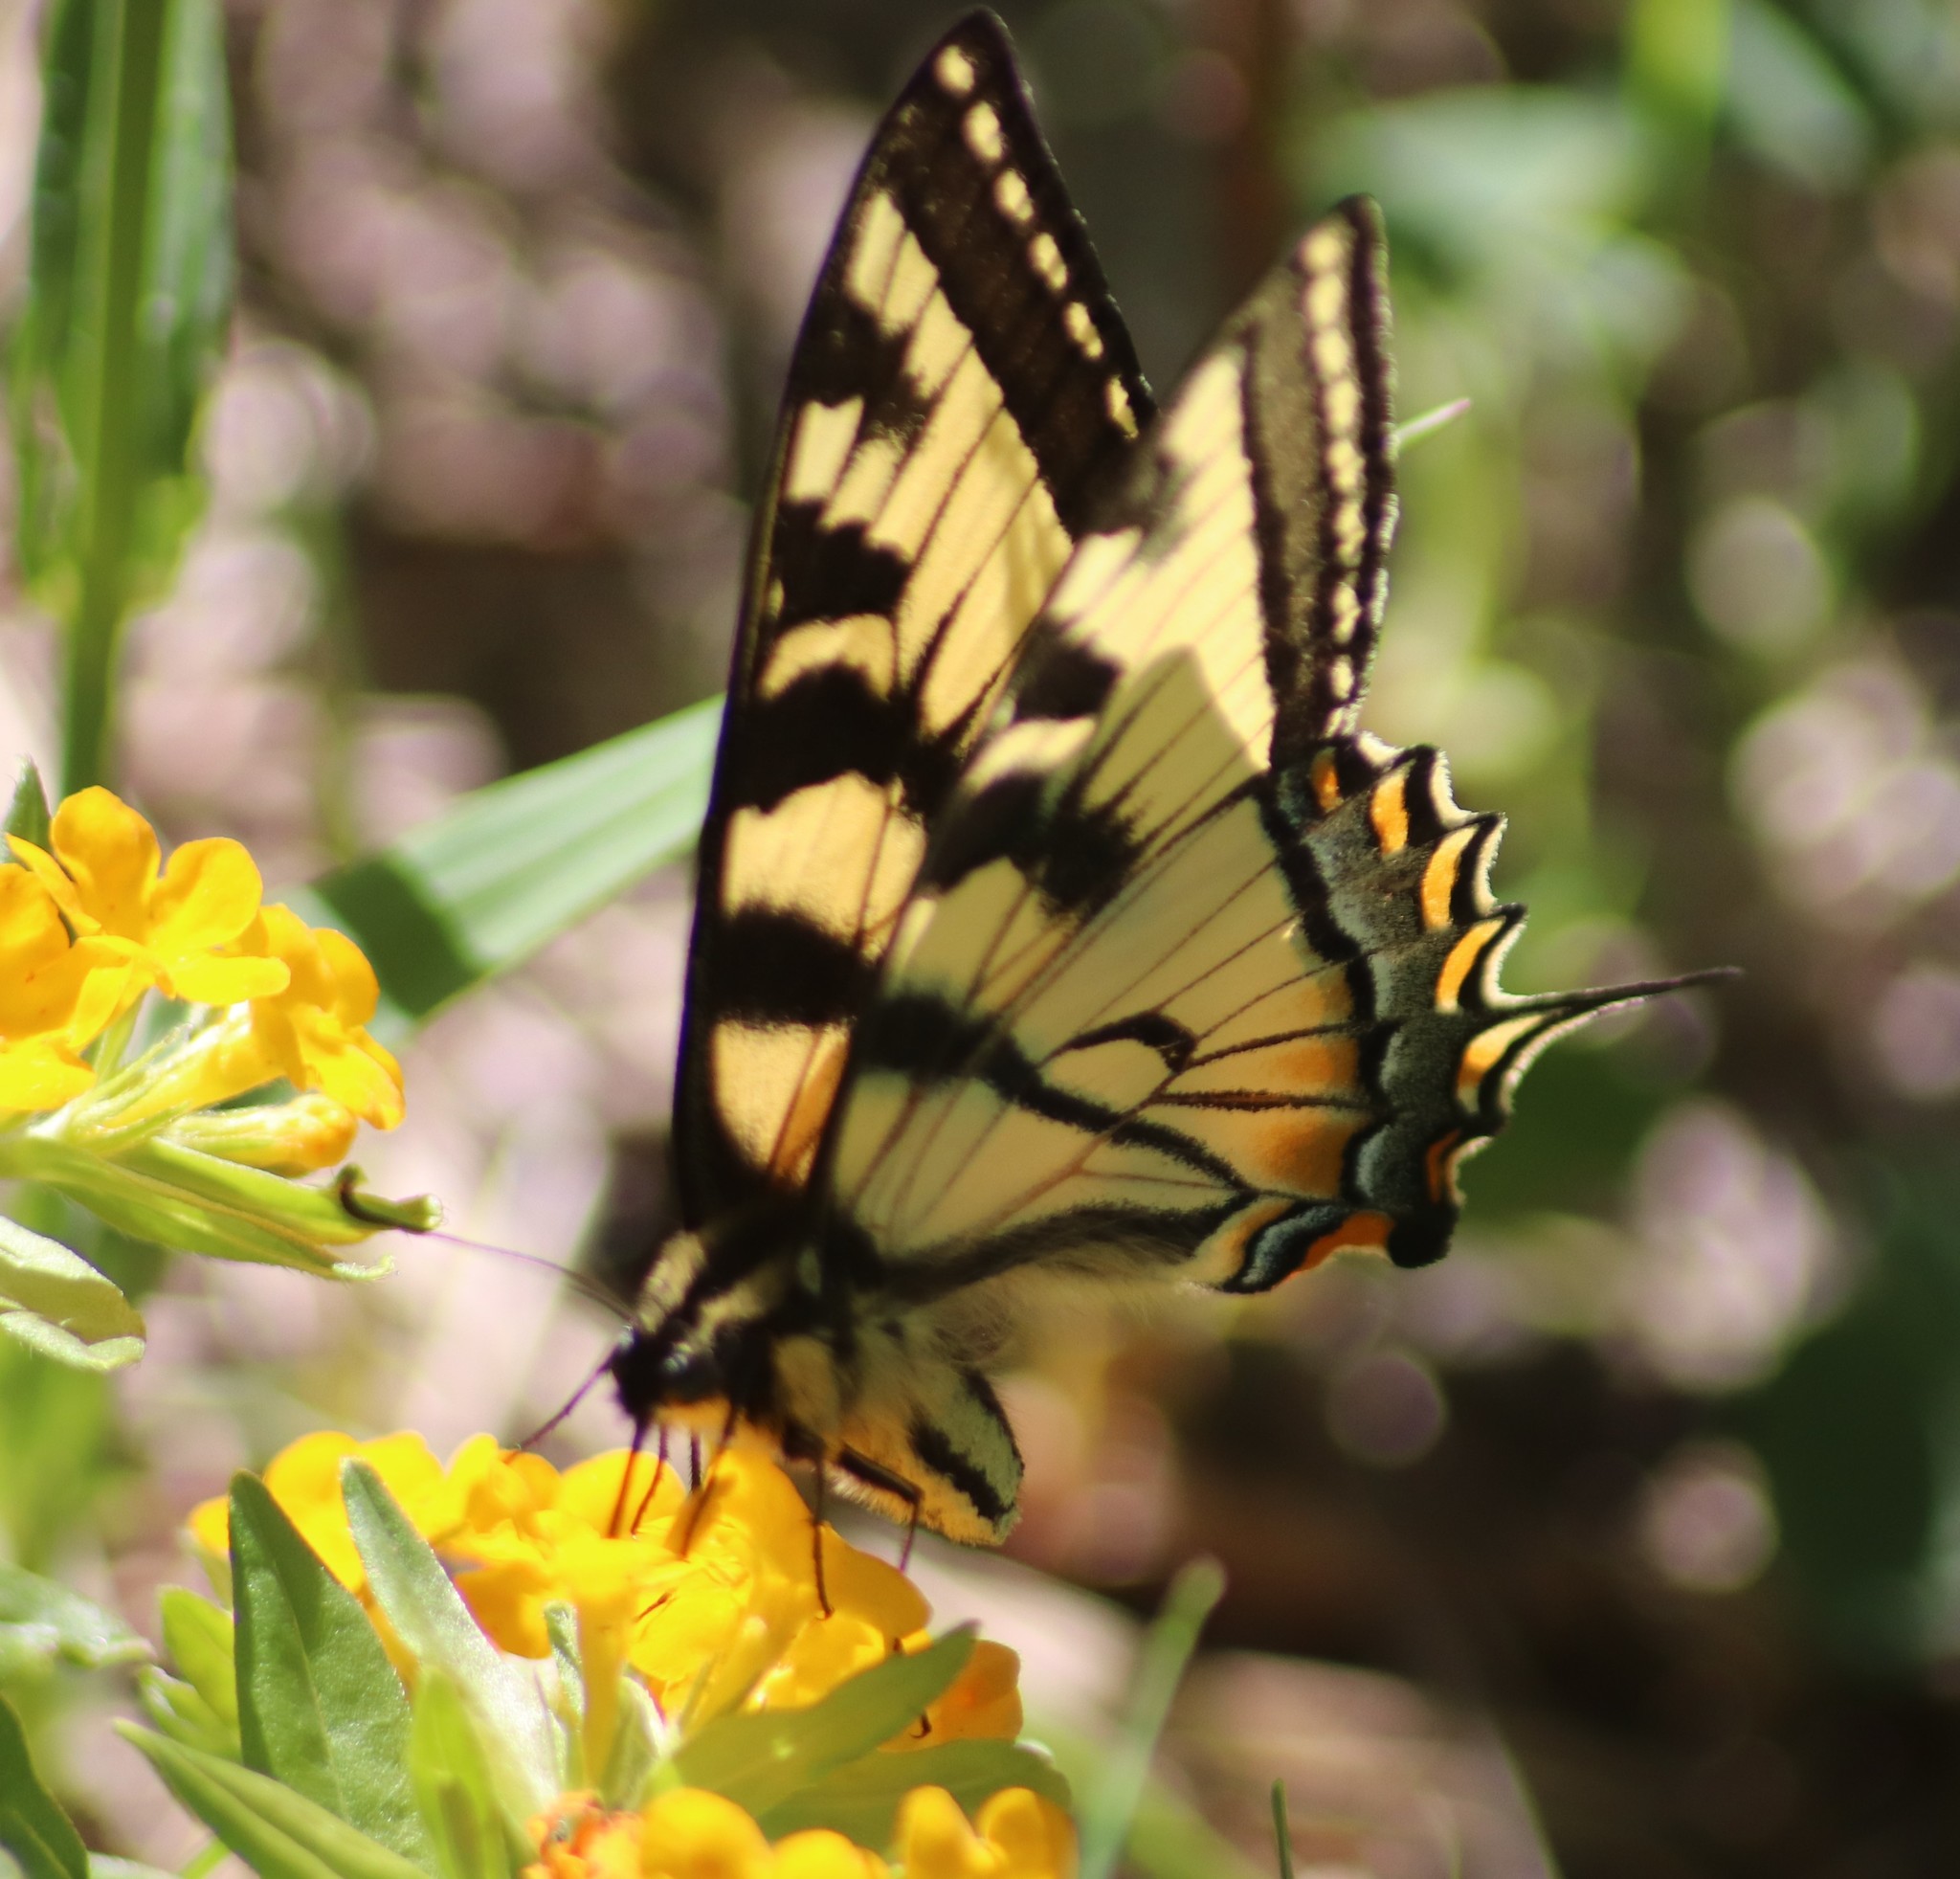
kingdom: Animalia
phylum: Arthropoda
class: Insecta
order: Lepidoptera
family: Papilionidae
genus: Papilio
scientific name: Papilio canadensis
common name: Canadian tiger swallowtail
